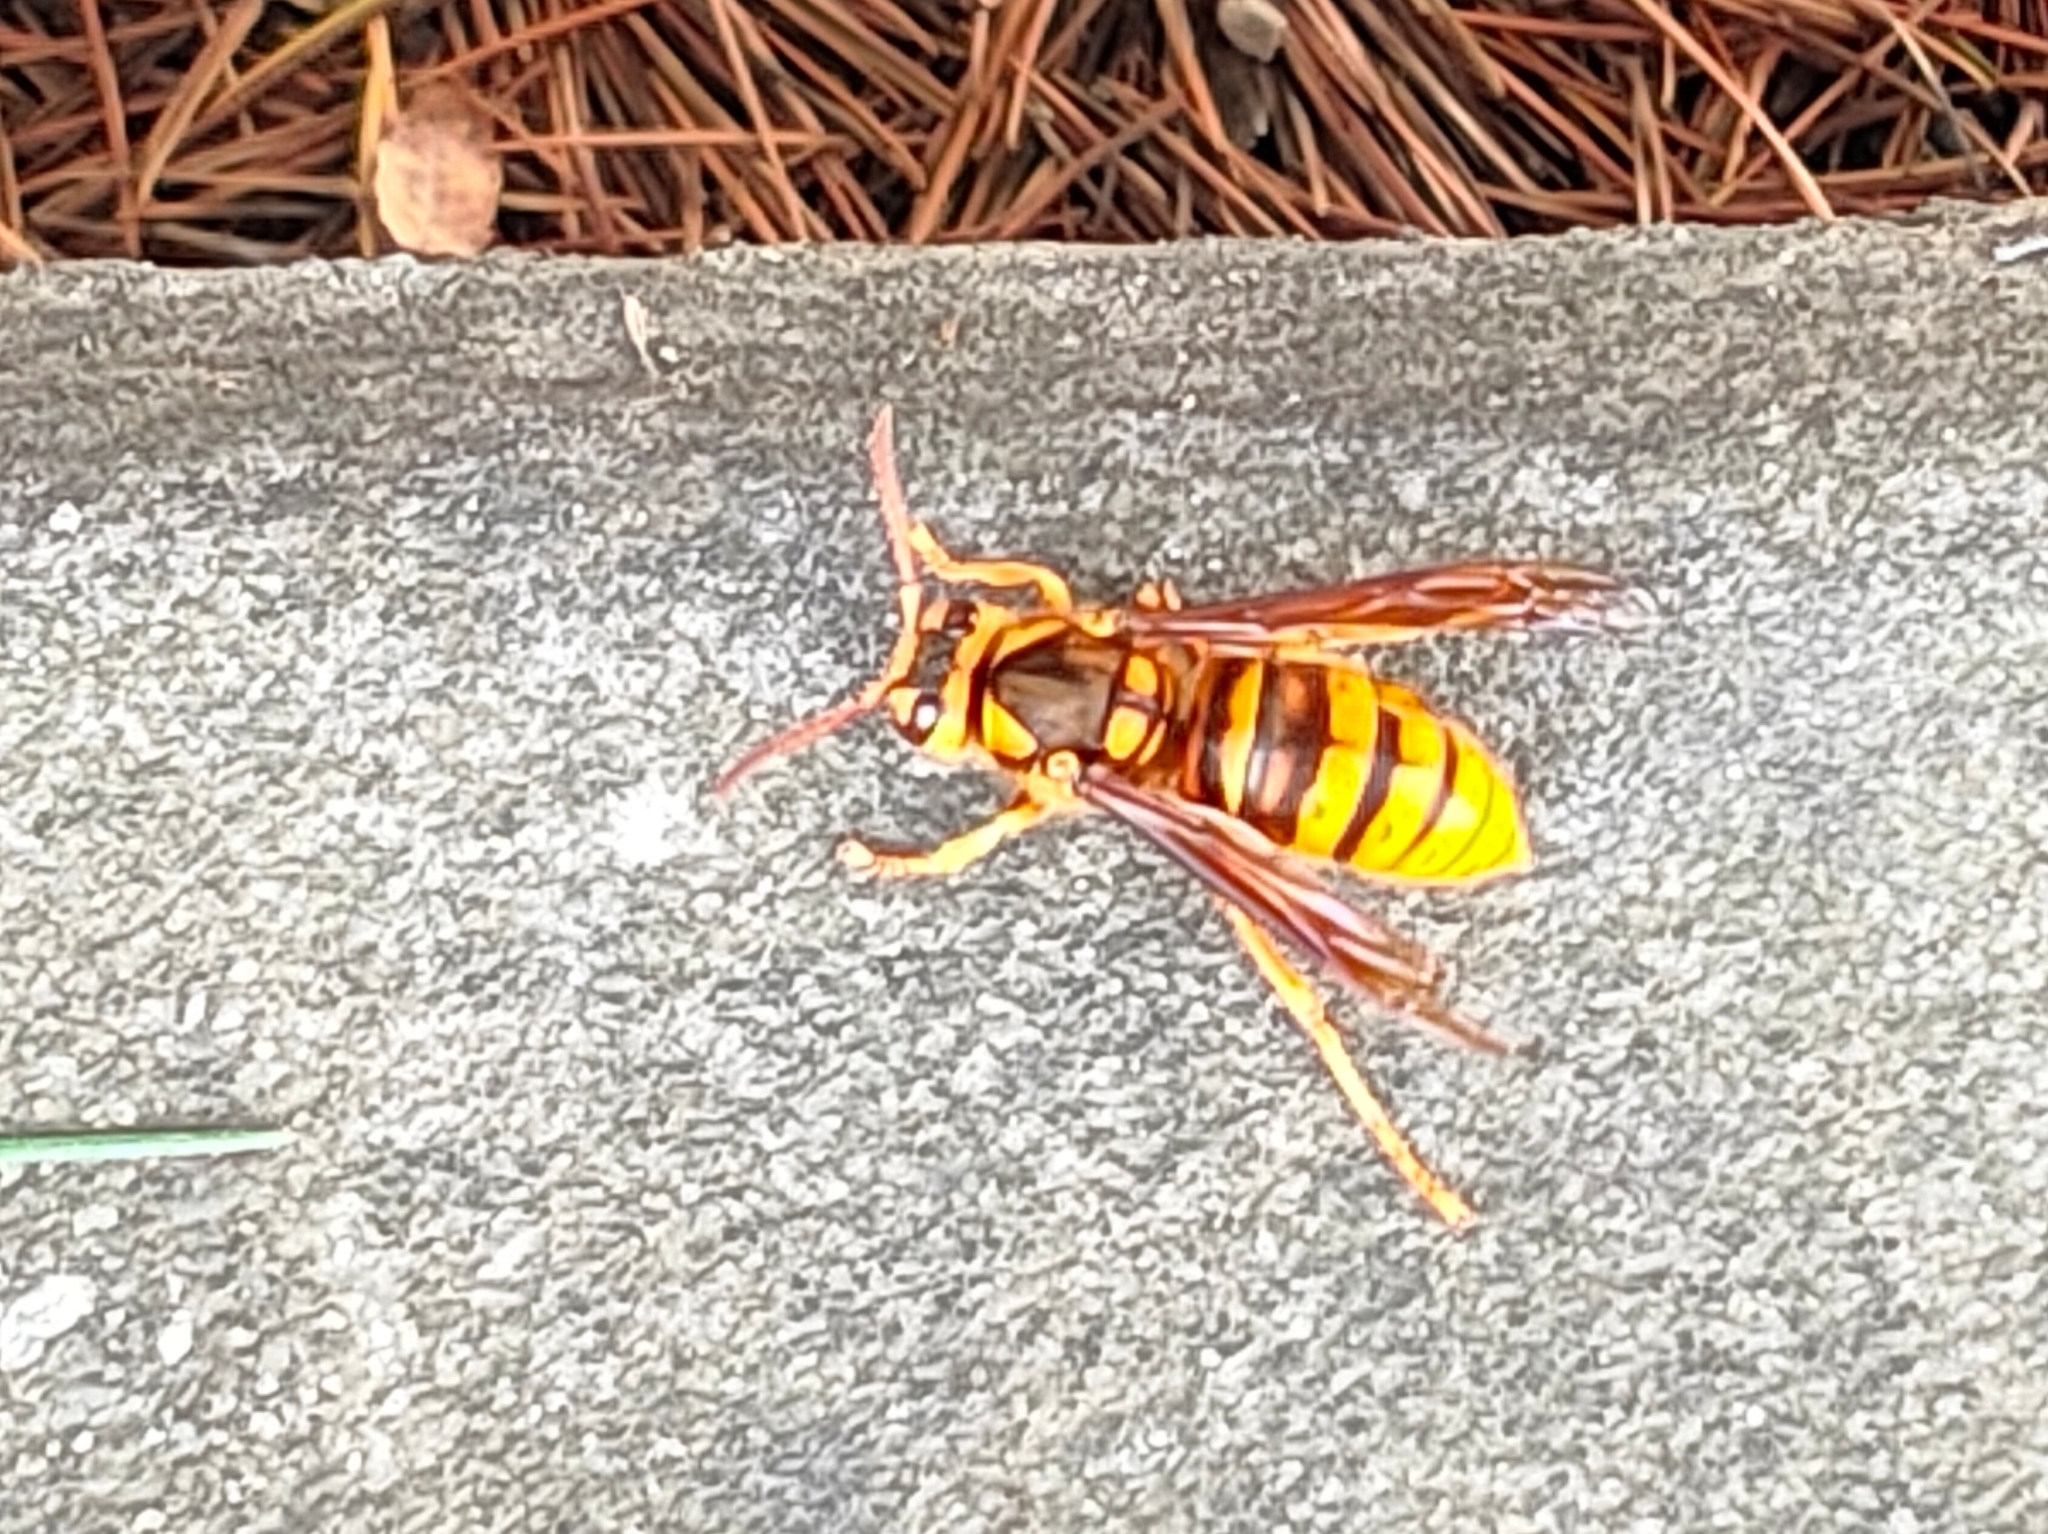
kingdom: Animalia
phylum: Arthropoda
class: Insecta
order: Hymenoptera
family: Vespidae
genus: Vespa
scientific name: Vespa simillima
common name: Vespid wasp
